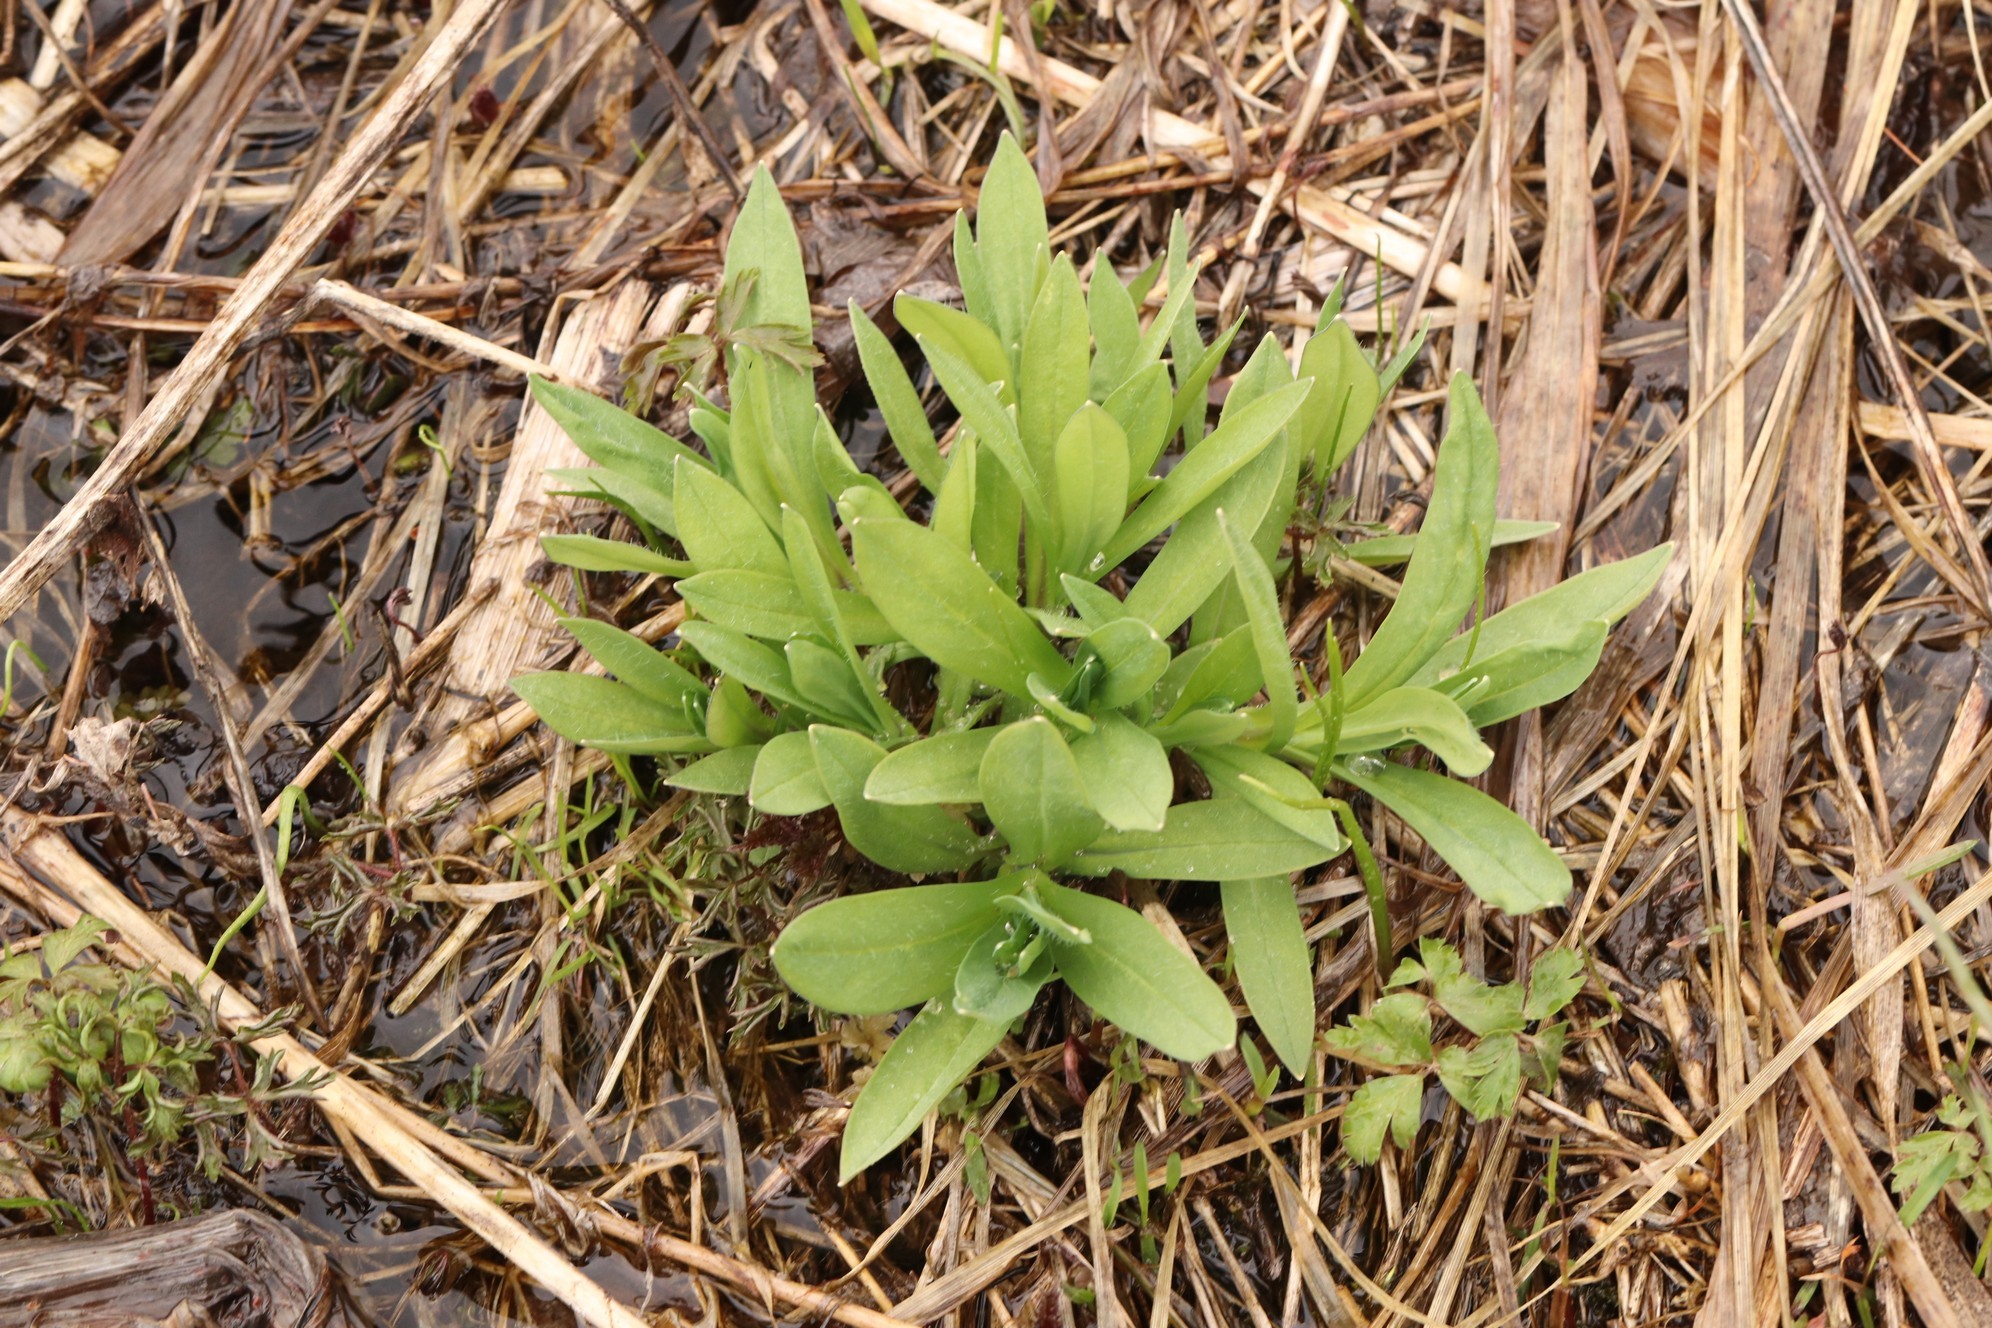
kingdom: Plantae
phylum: Tracheophyta
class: Magnoliopsida
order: Caryophyllales
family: Caryophyllaceae
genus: Silene
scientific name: Silene vulgaris
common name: Bladder campion
